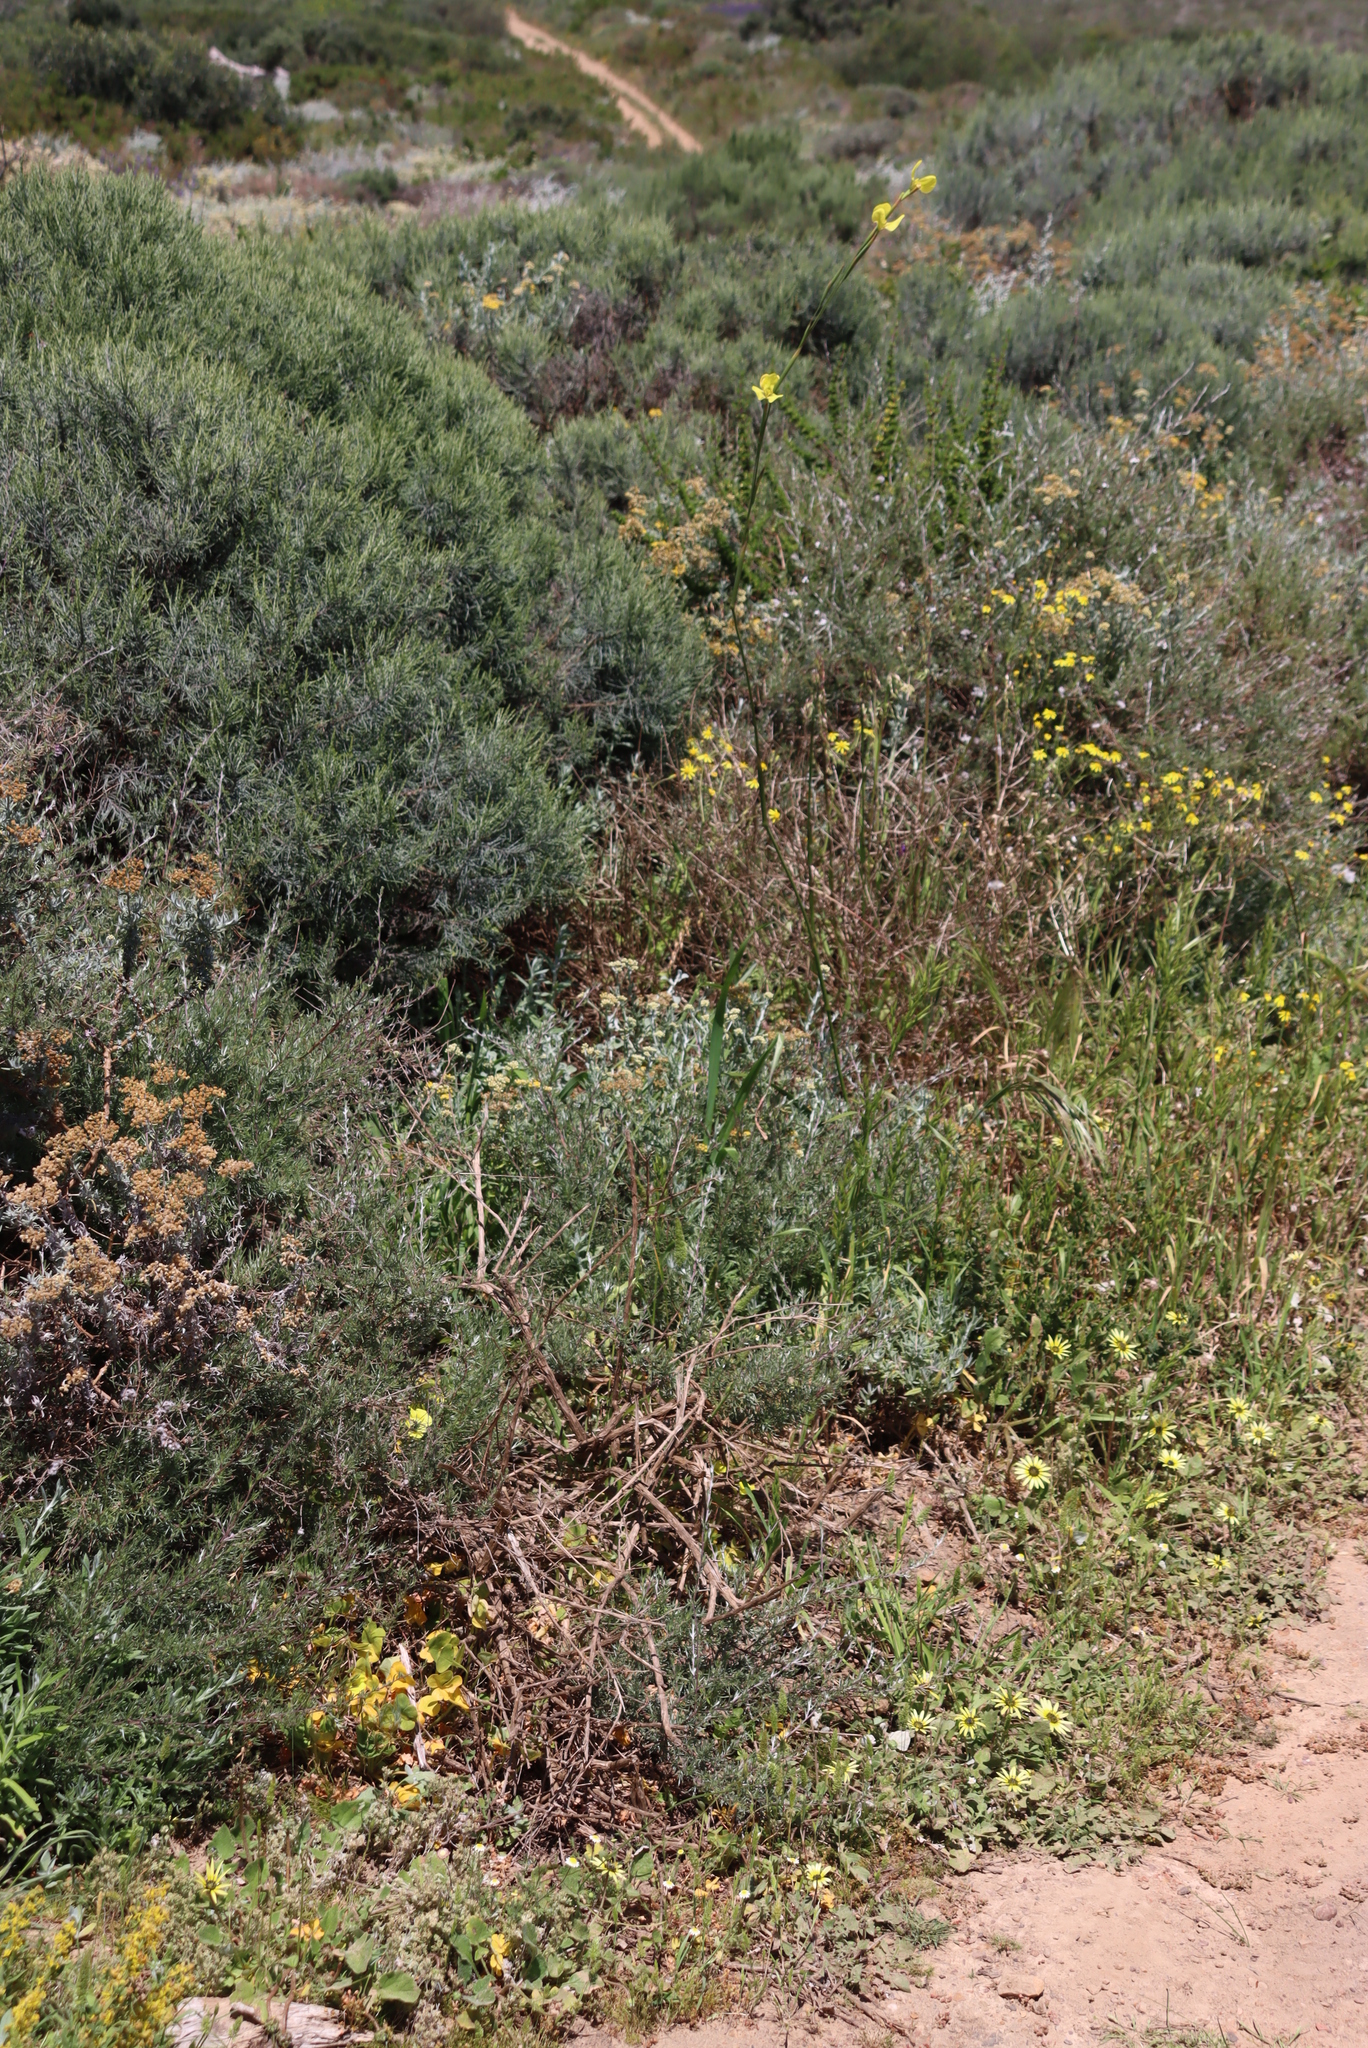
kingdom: Plantae
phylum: Tracheophyta
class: Liliopsida
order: Asparagales
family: Iridaceae
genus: Moraea
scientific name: Moraea bellendenii
